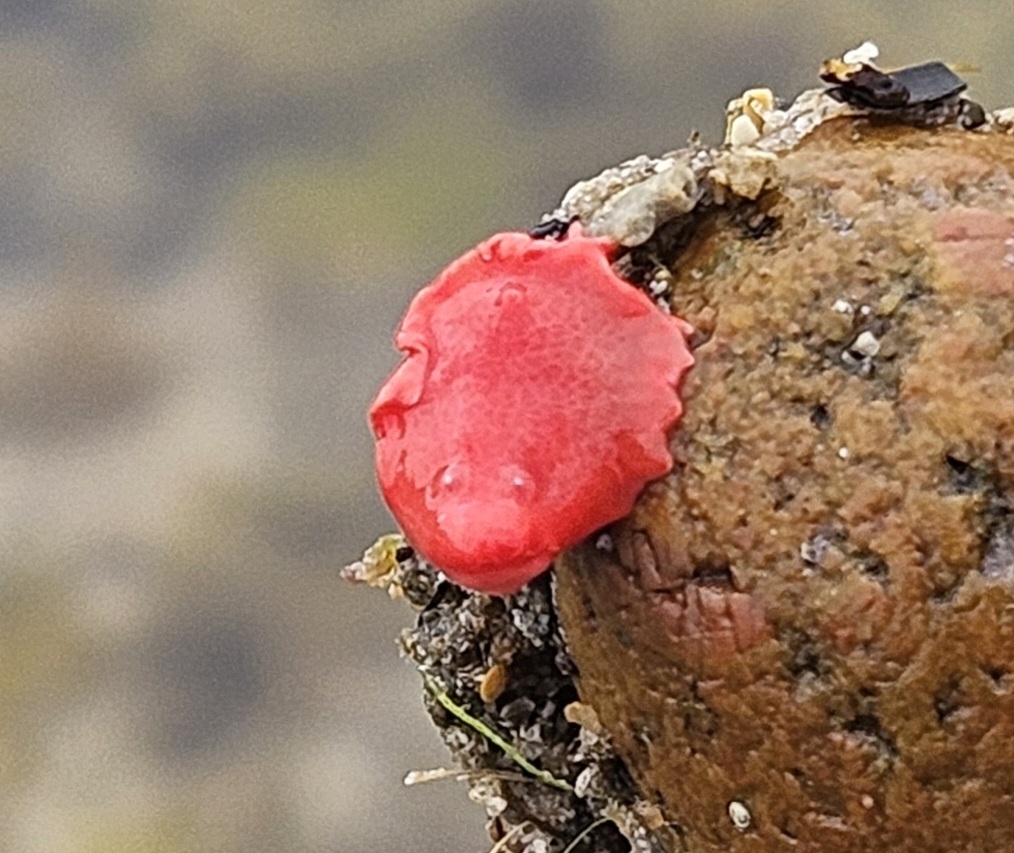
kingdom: Animalia
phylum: Mollusca
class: Gastropoda
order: Nudibranchia
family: Chromodorididae
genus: Verconia
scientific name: Verconia verconis
